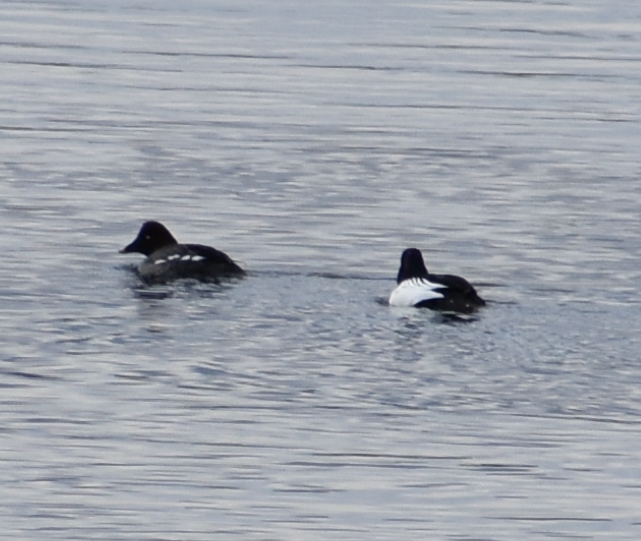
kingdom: Animalia
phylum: Chordata
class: Aves
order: Anseriformes
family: Anatidae
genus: Bucephala
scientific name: Bucephala clangula
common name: Common goldeneye
